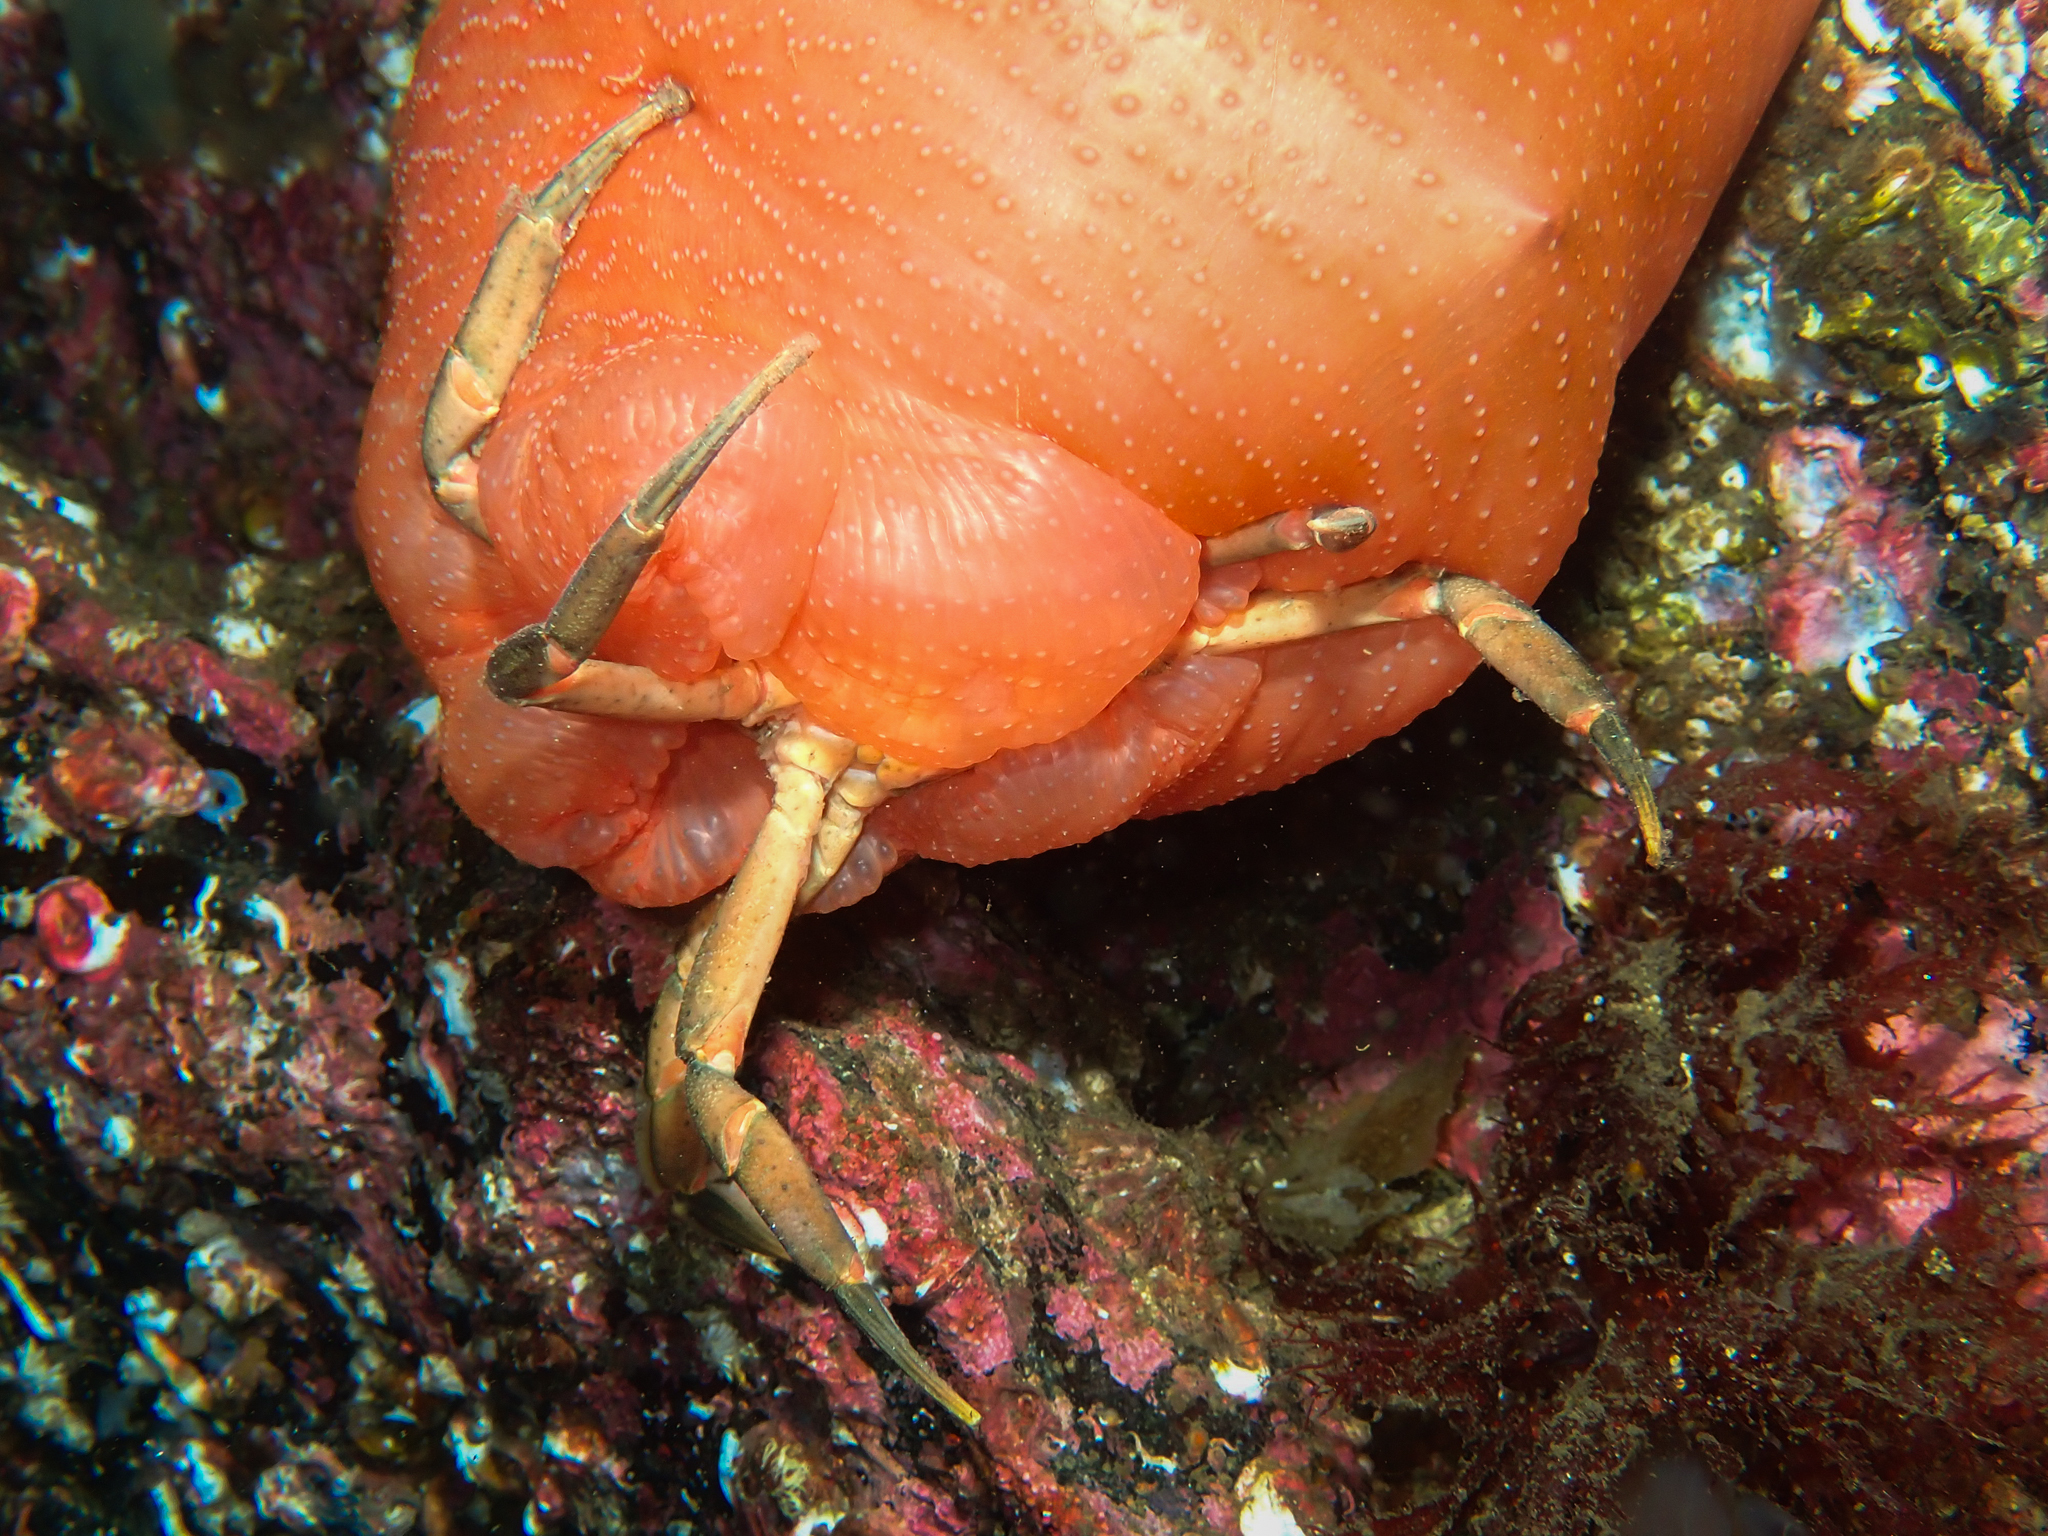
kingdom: Animalia
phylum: Arthropoda
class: Malacostraca
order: Decapoda
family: Carcinidae
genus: Carcinus
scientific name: Carcinus maenas
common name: European green crab
